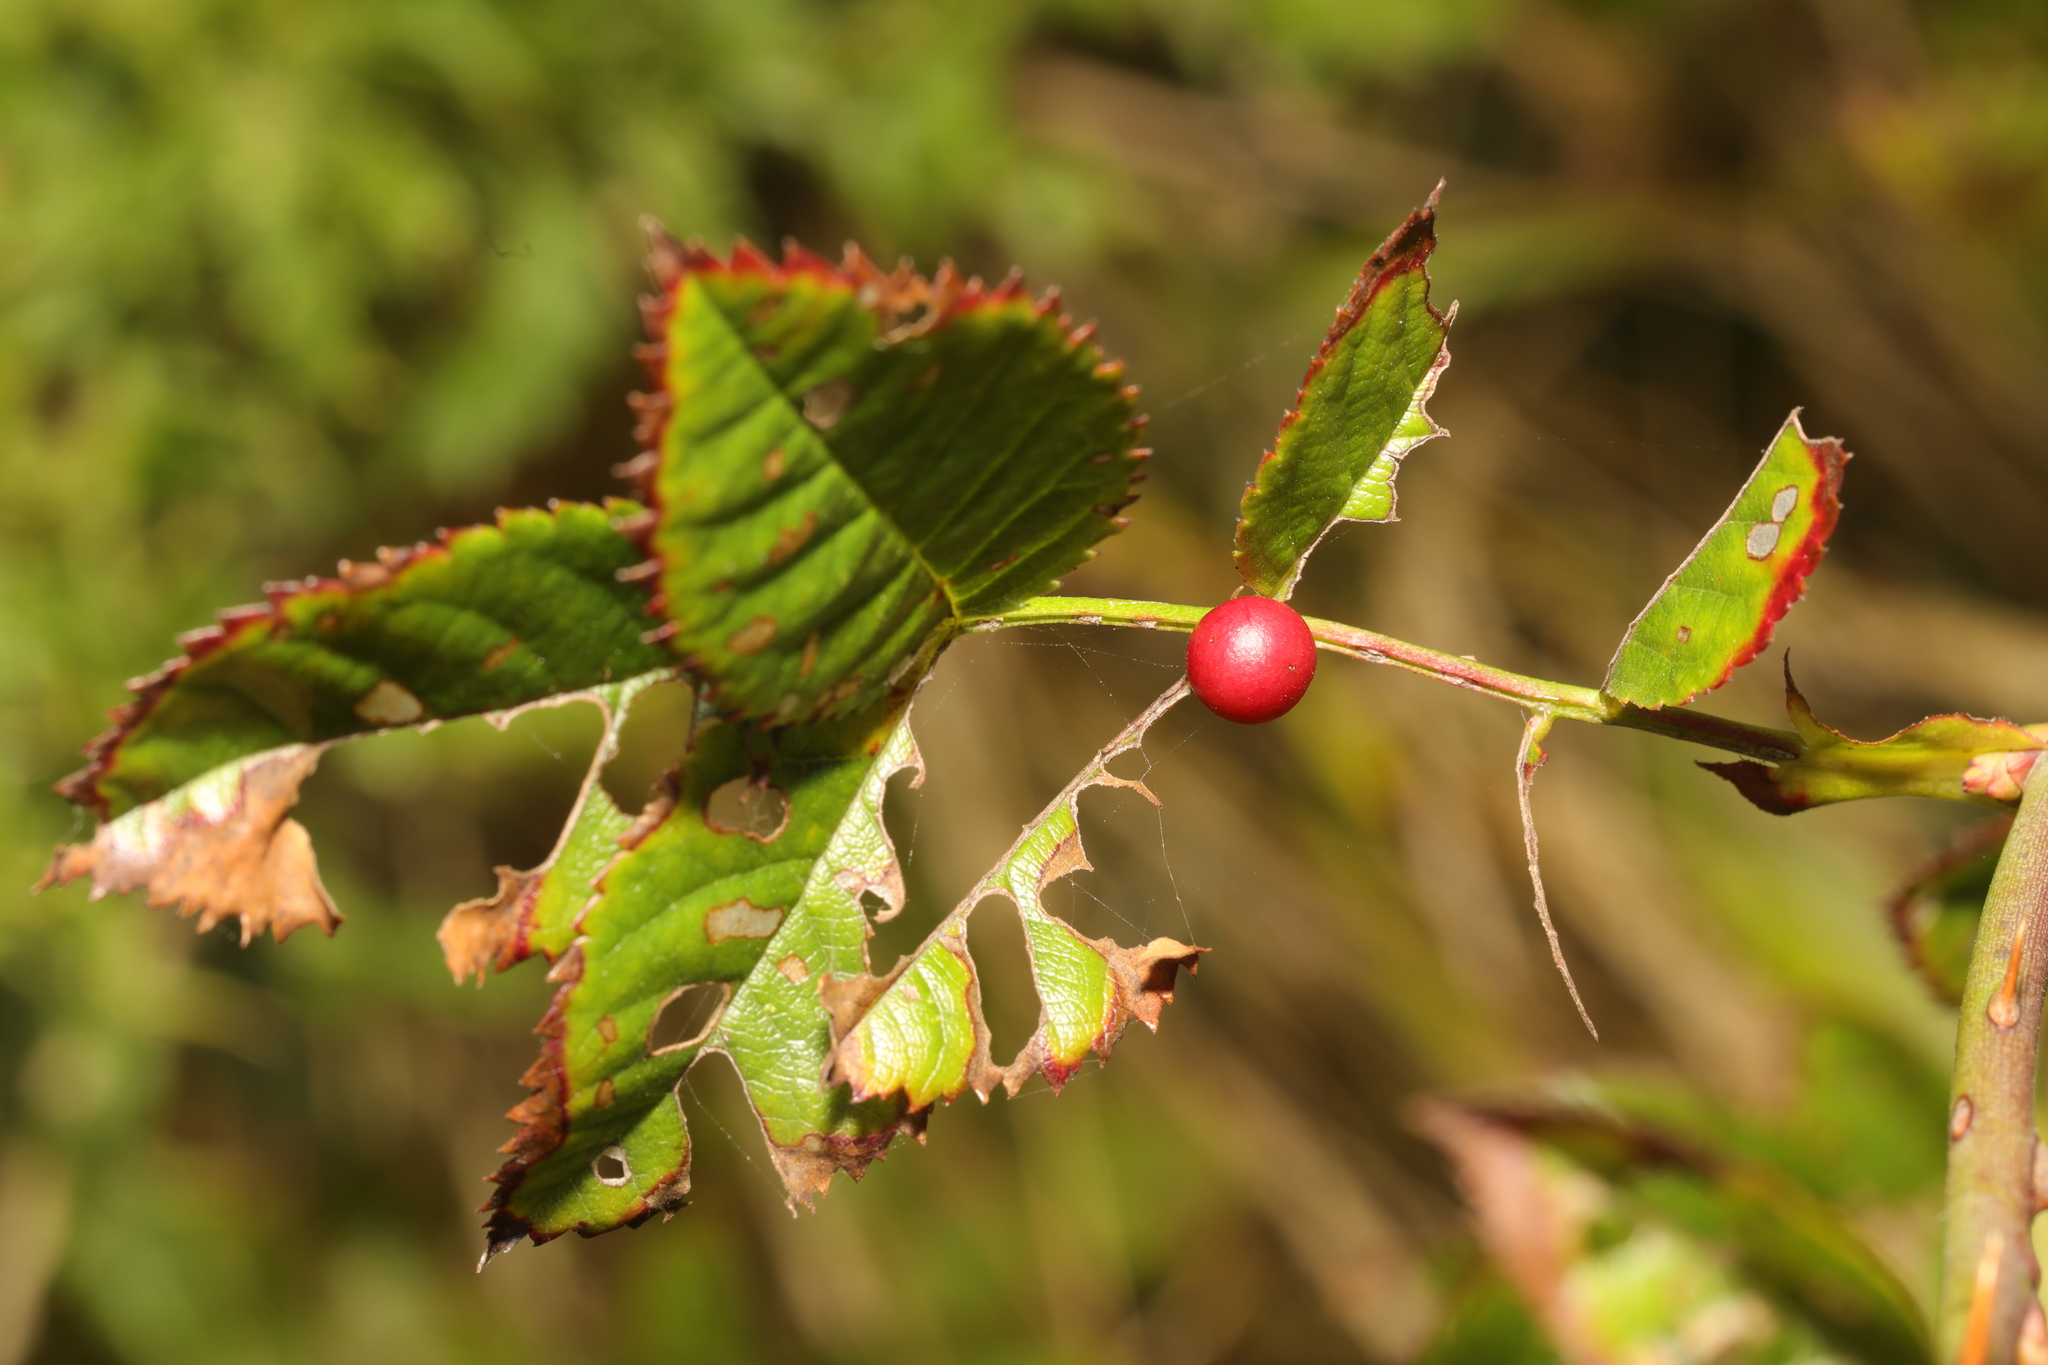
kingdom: Animalia
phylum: Arthropoda
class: Insecta
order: Hymenoptera
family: Cynipidae
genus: Diplolepis
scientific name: Diplolepis eglanteriae
